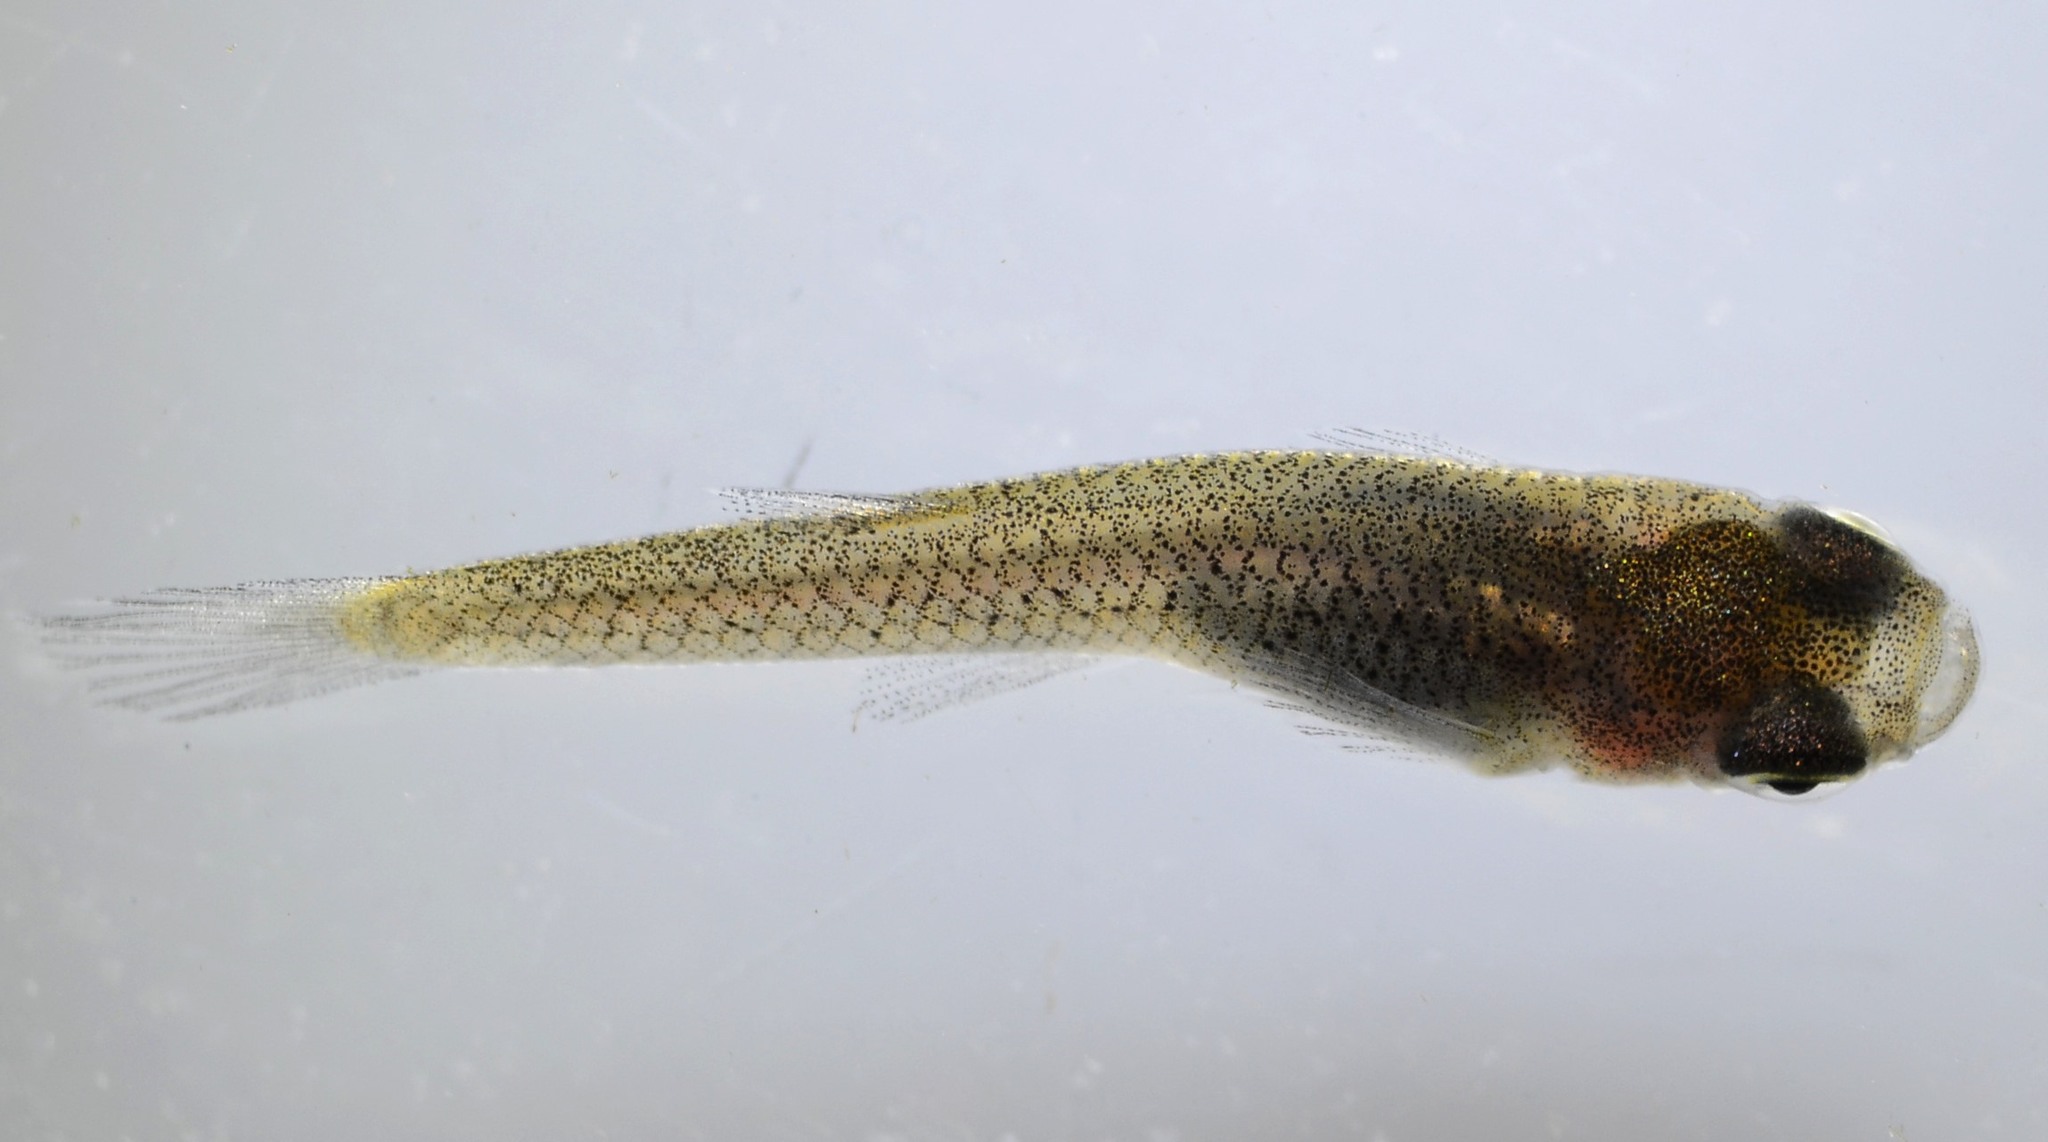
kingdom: Animalia
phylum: Chordata
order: Cyprinodontiformes
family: Poeciliidae
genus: Gambusia
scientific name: Gambusia affinis
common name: Mosquitofish
